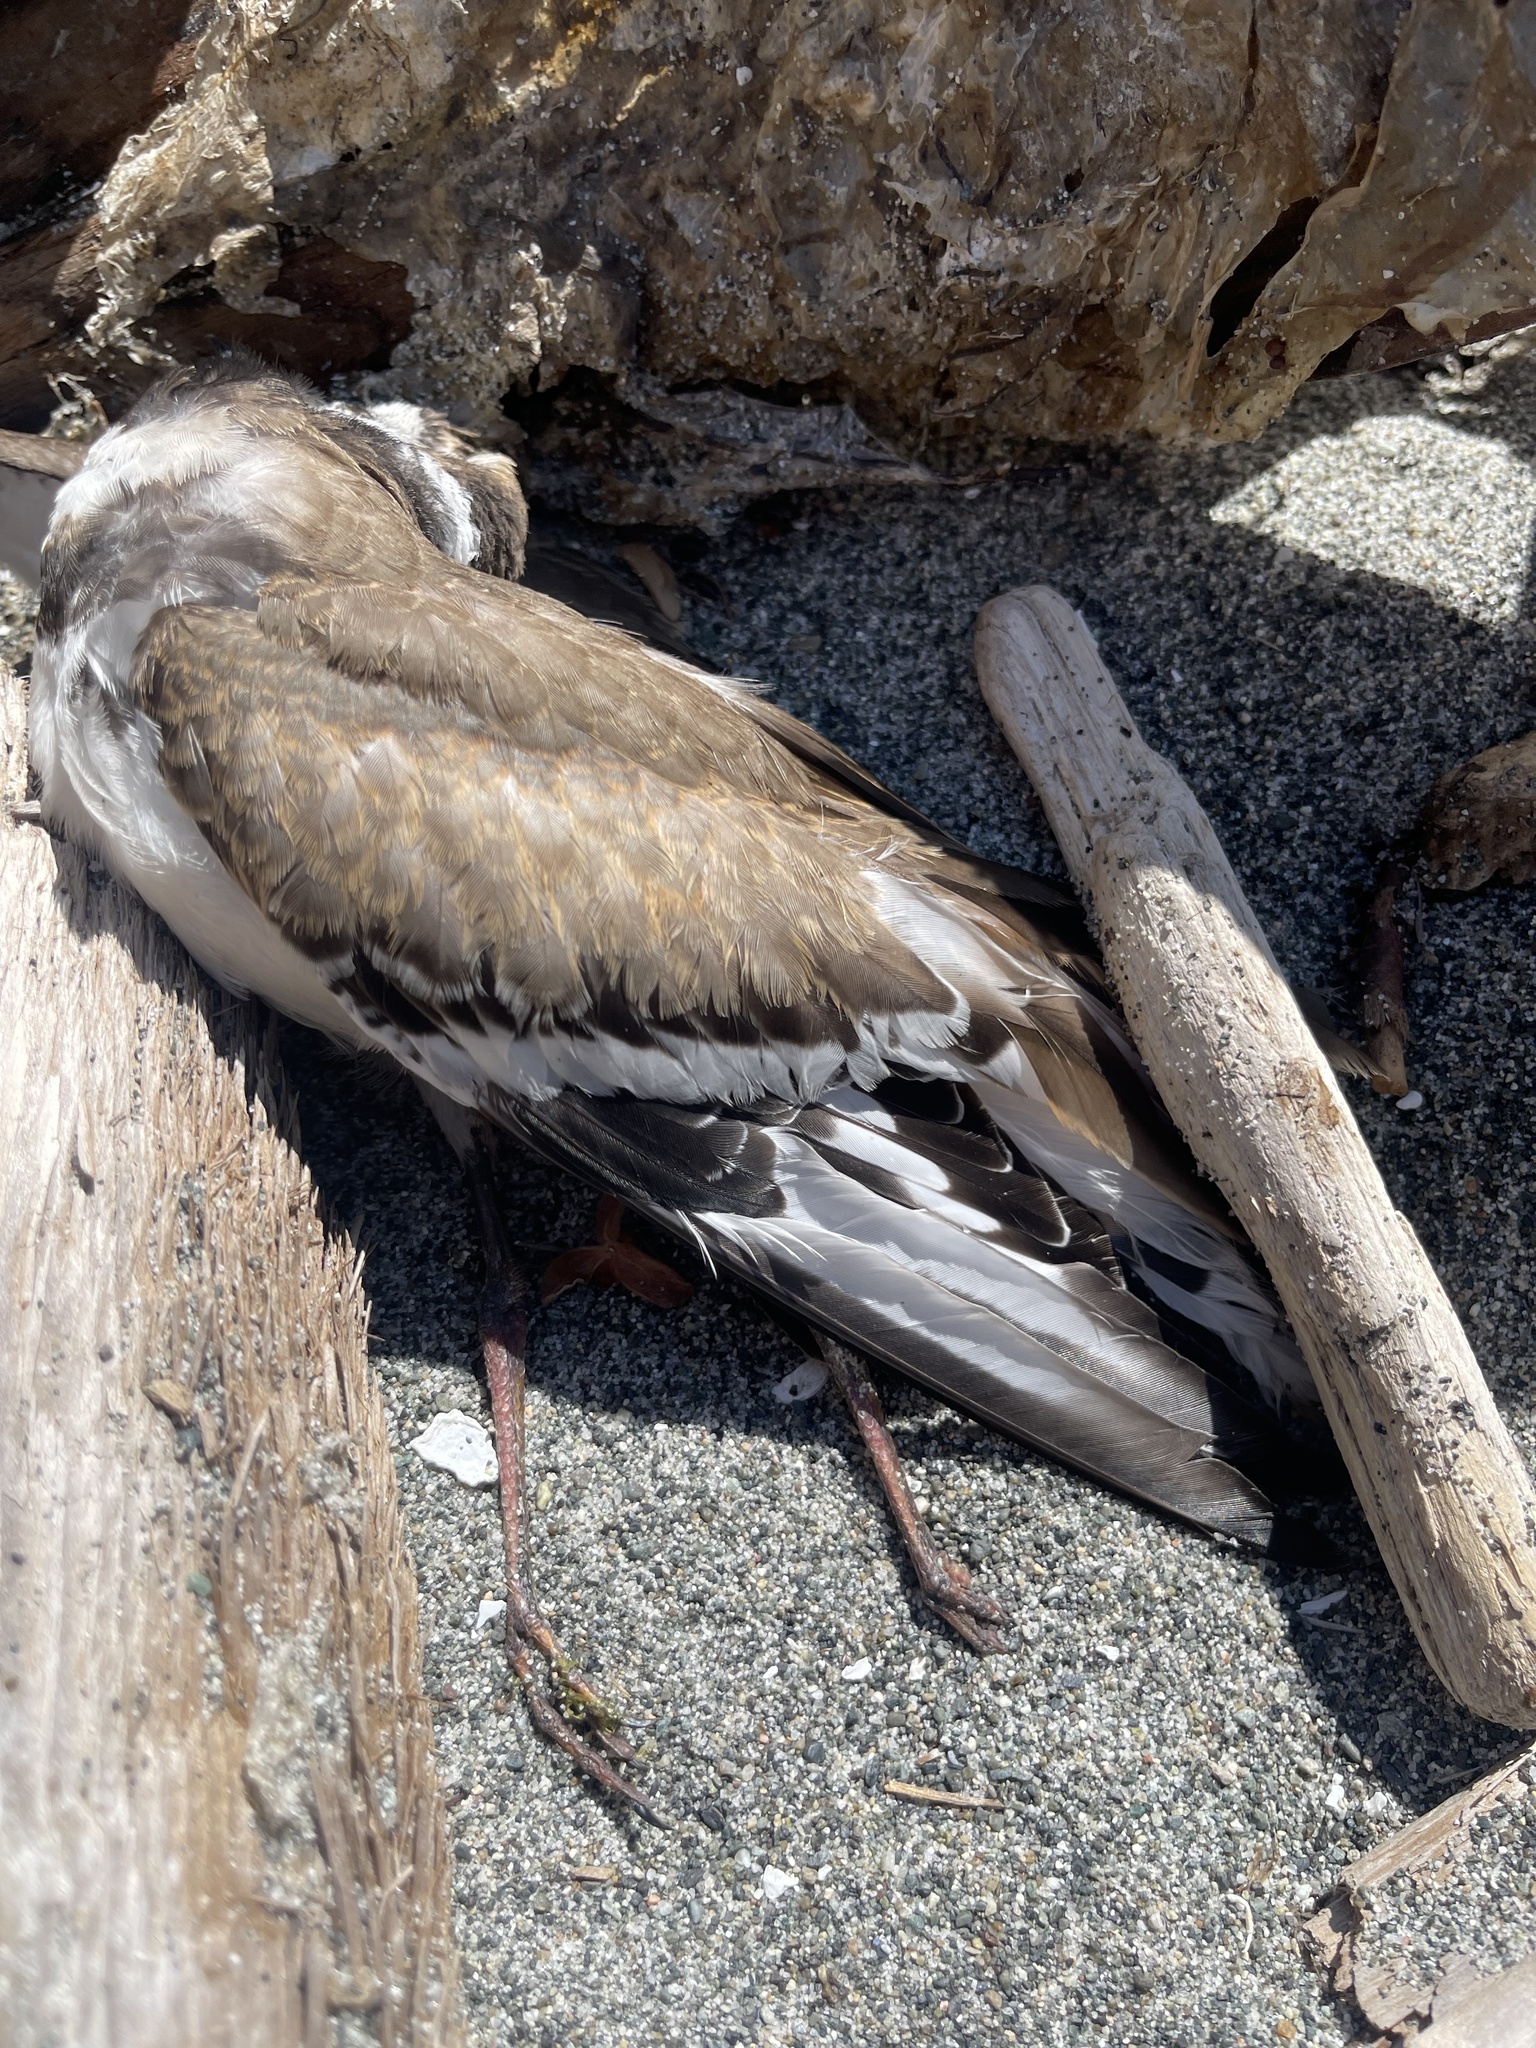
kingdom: Animalia
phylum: Chordata
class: Aves
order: Charadriiformes
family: Charadriidae
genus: Charadrius
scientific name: Charadrius vociferus
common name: Killdeer
